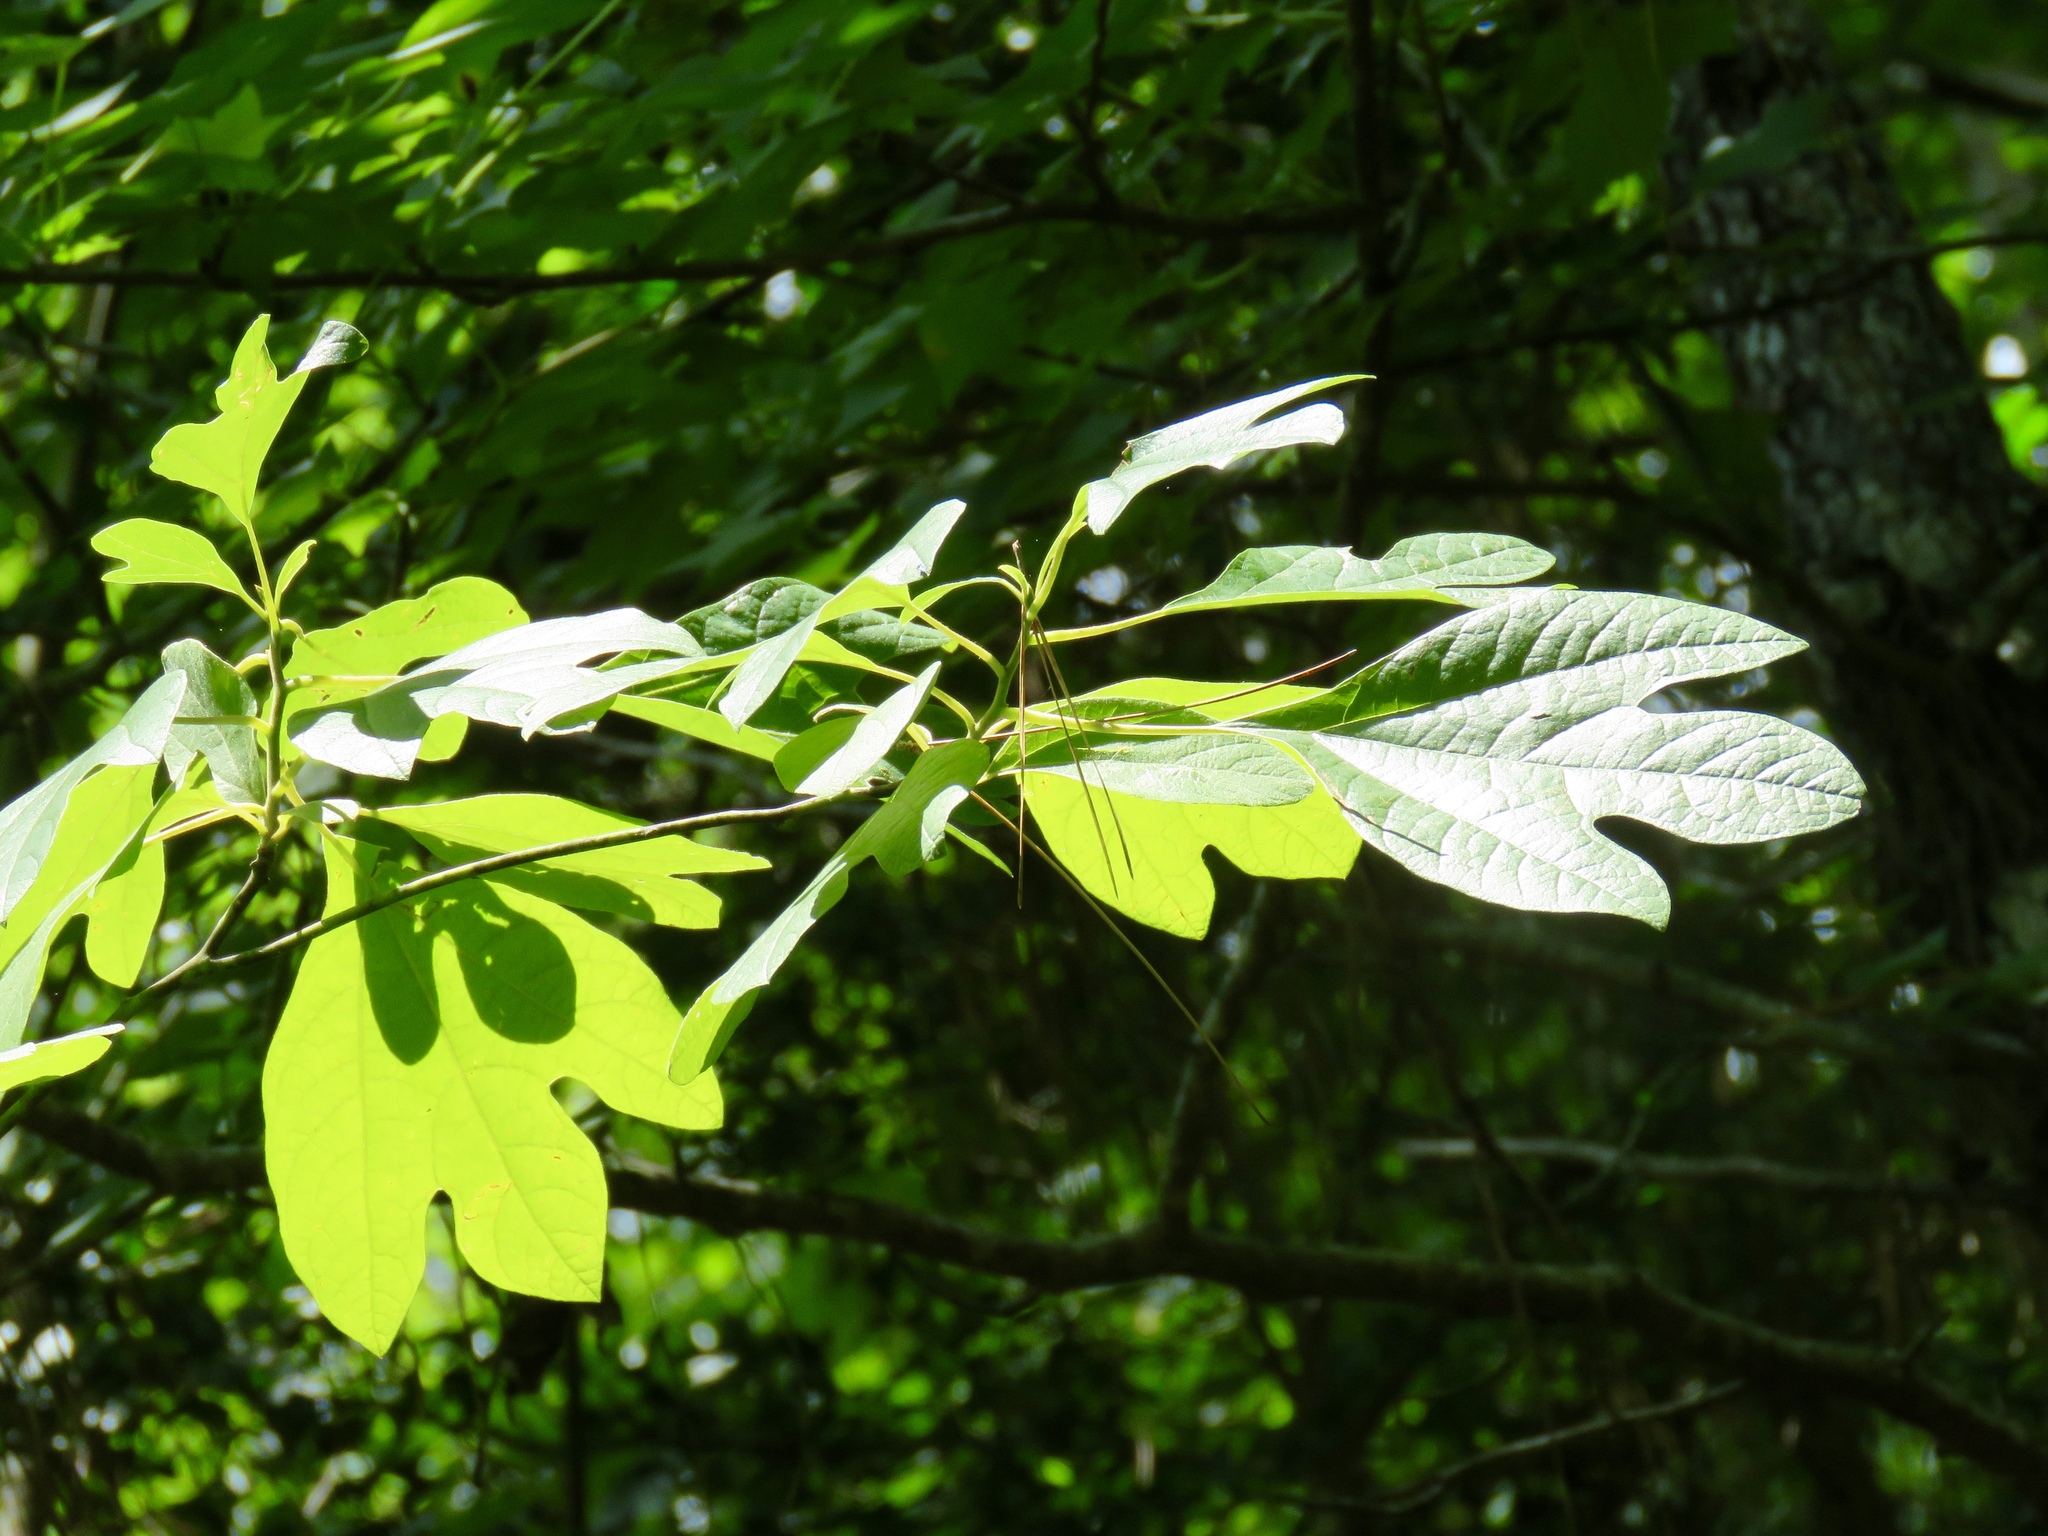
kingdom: Plantae
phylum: Tracheophyta
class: Magnoliopsida
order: Laurales
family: Lauraceae
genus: Sassafras
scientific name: Sassafras albidum
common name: Sassafras
